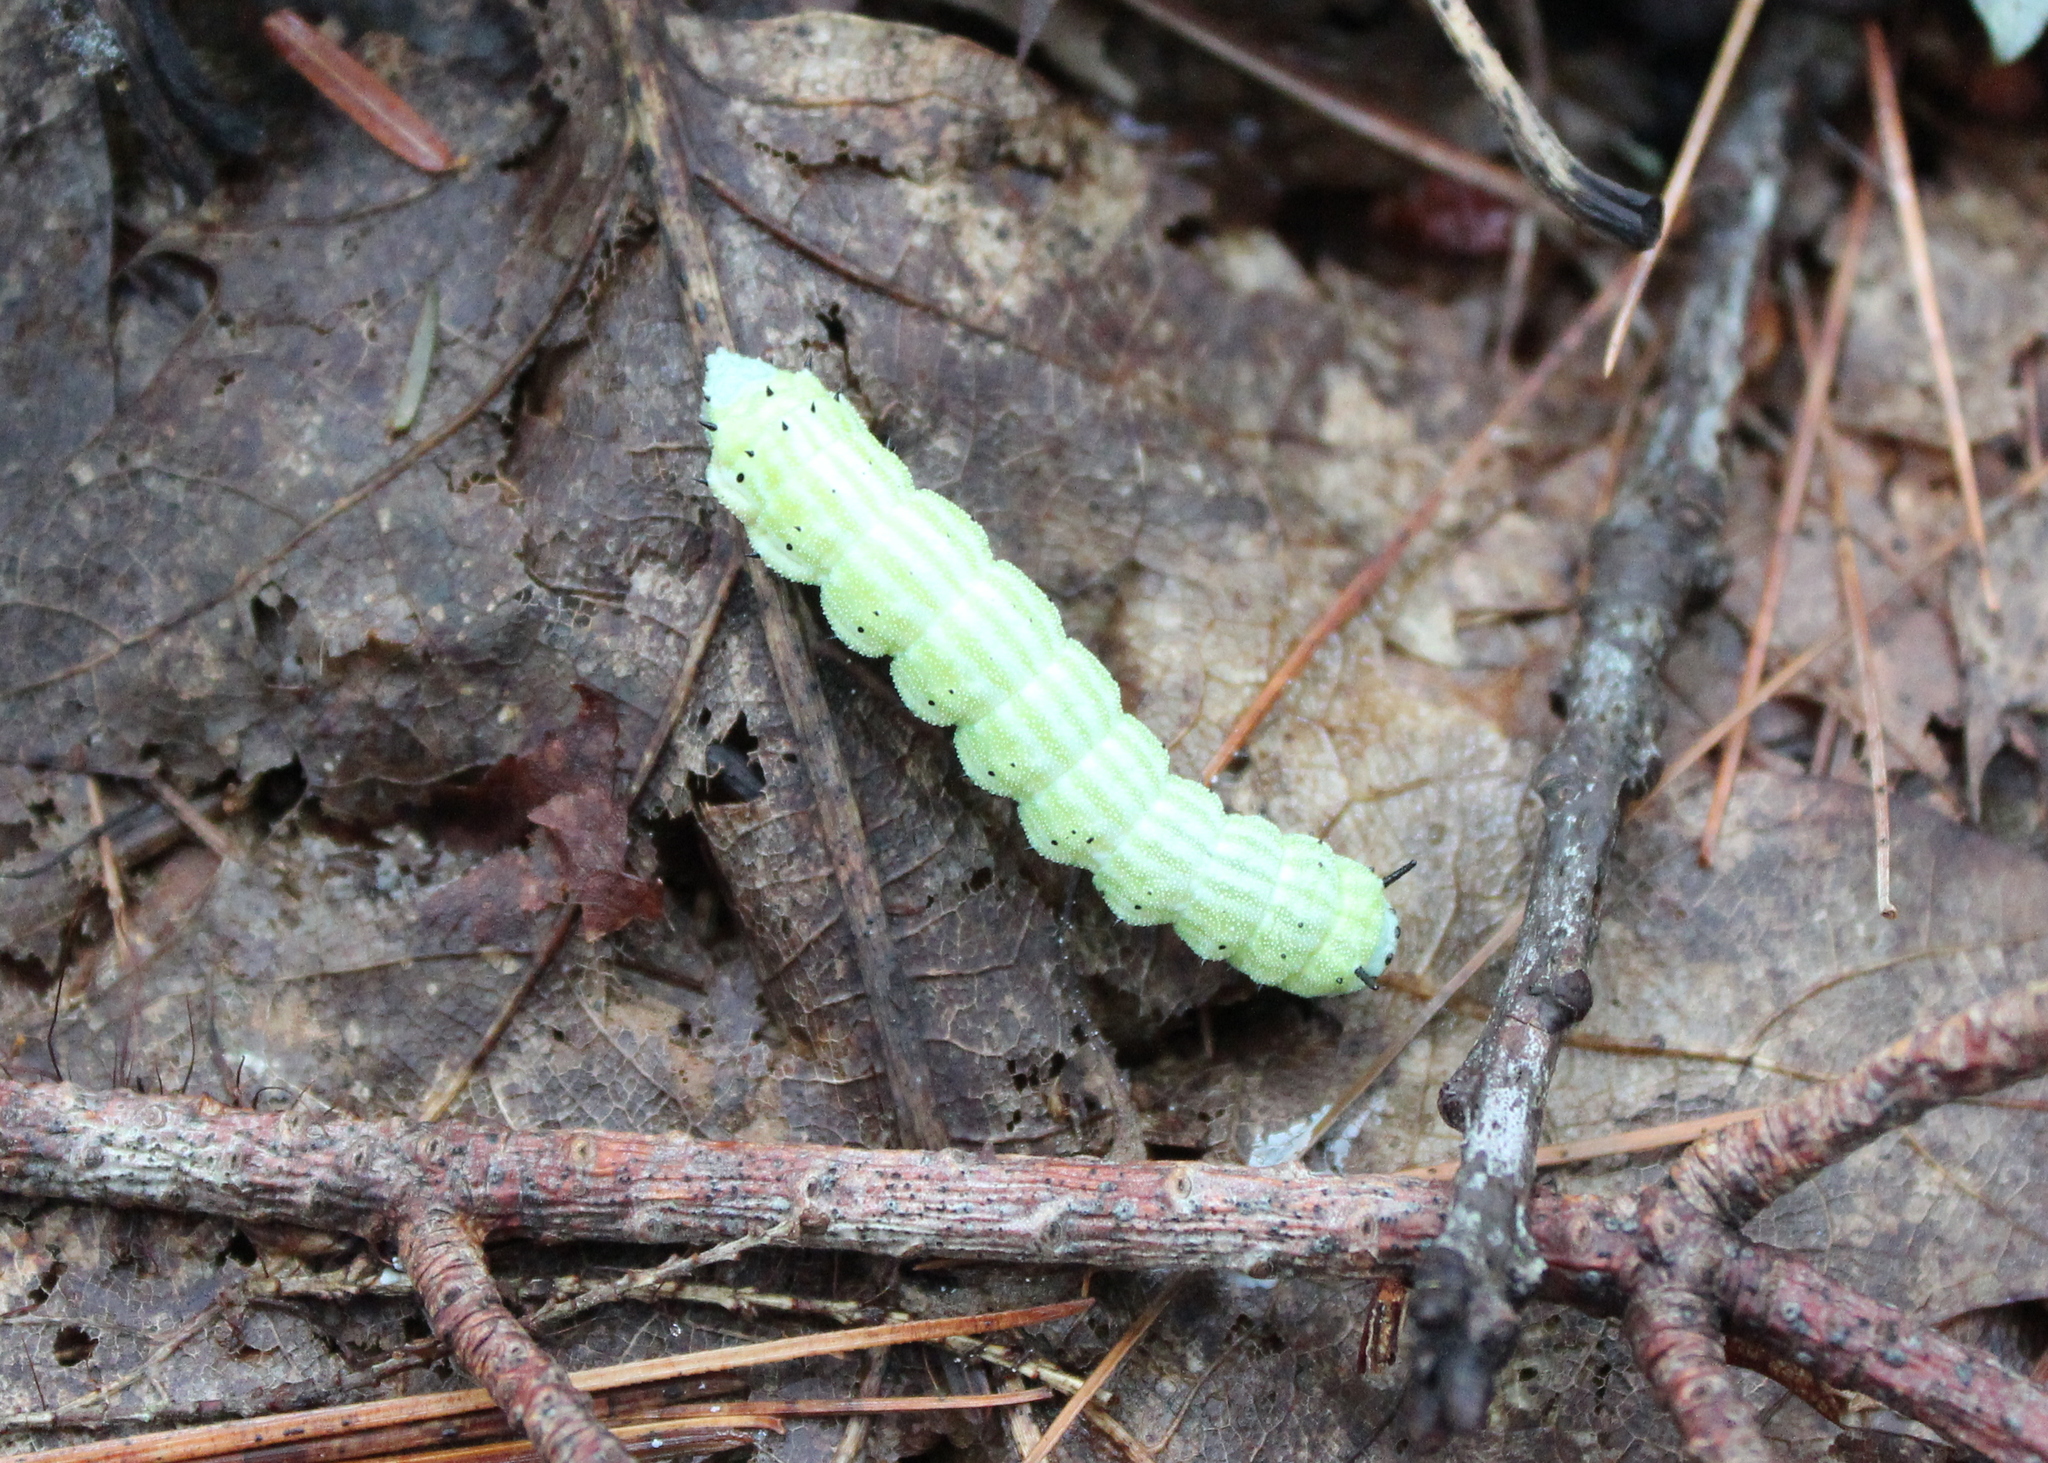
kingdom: Animalia
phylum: Arthropoda
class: Insecta
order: Lepidoptera
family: Saturniidae
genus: Dryocampa
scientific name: Dryocampa rubicunda
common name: Rosy maple moth
